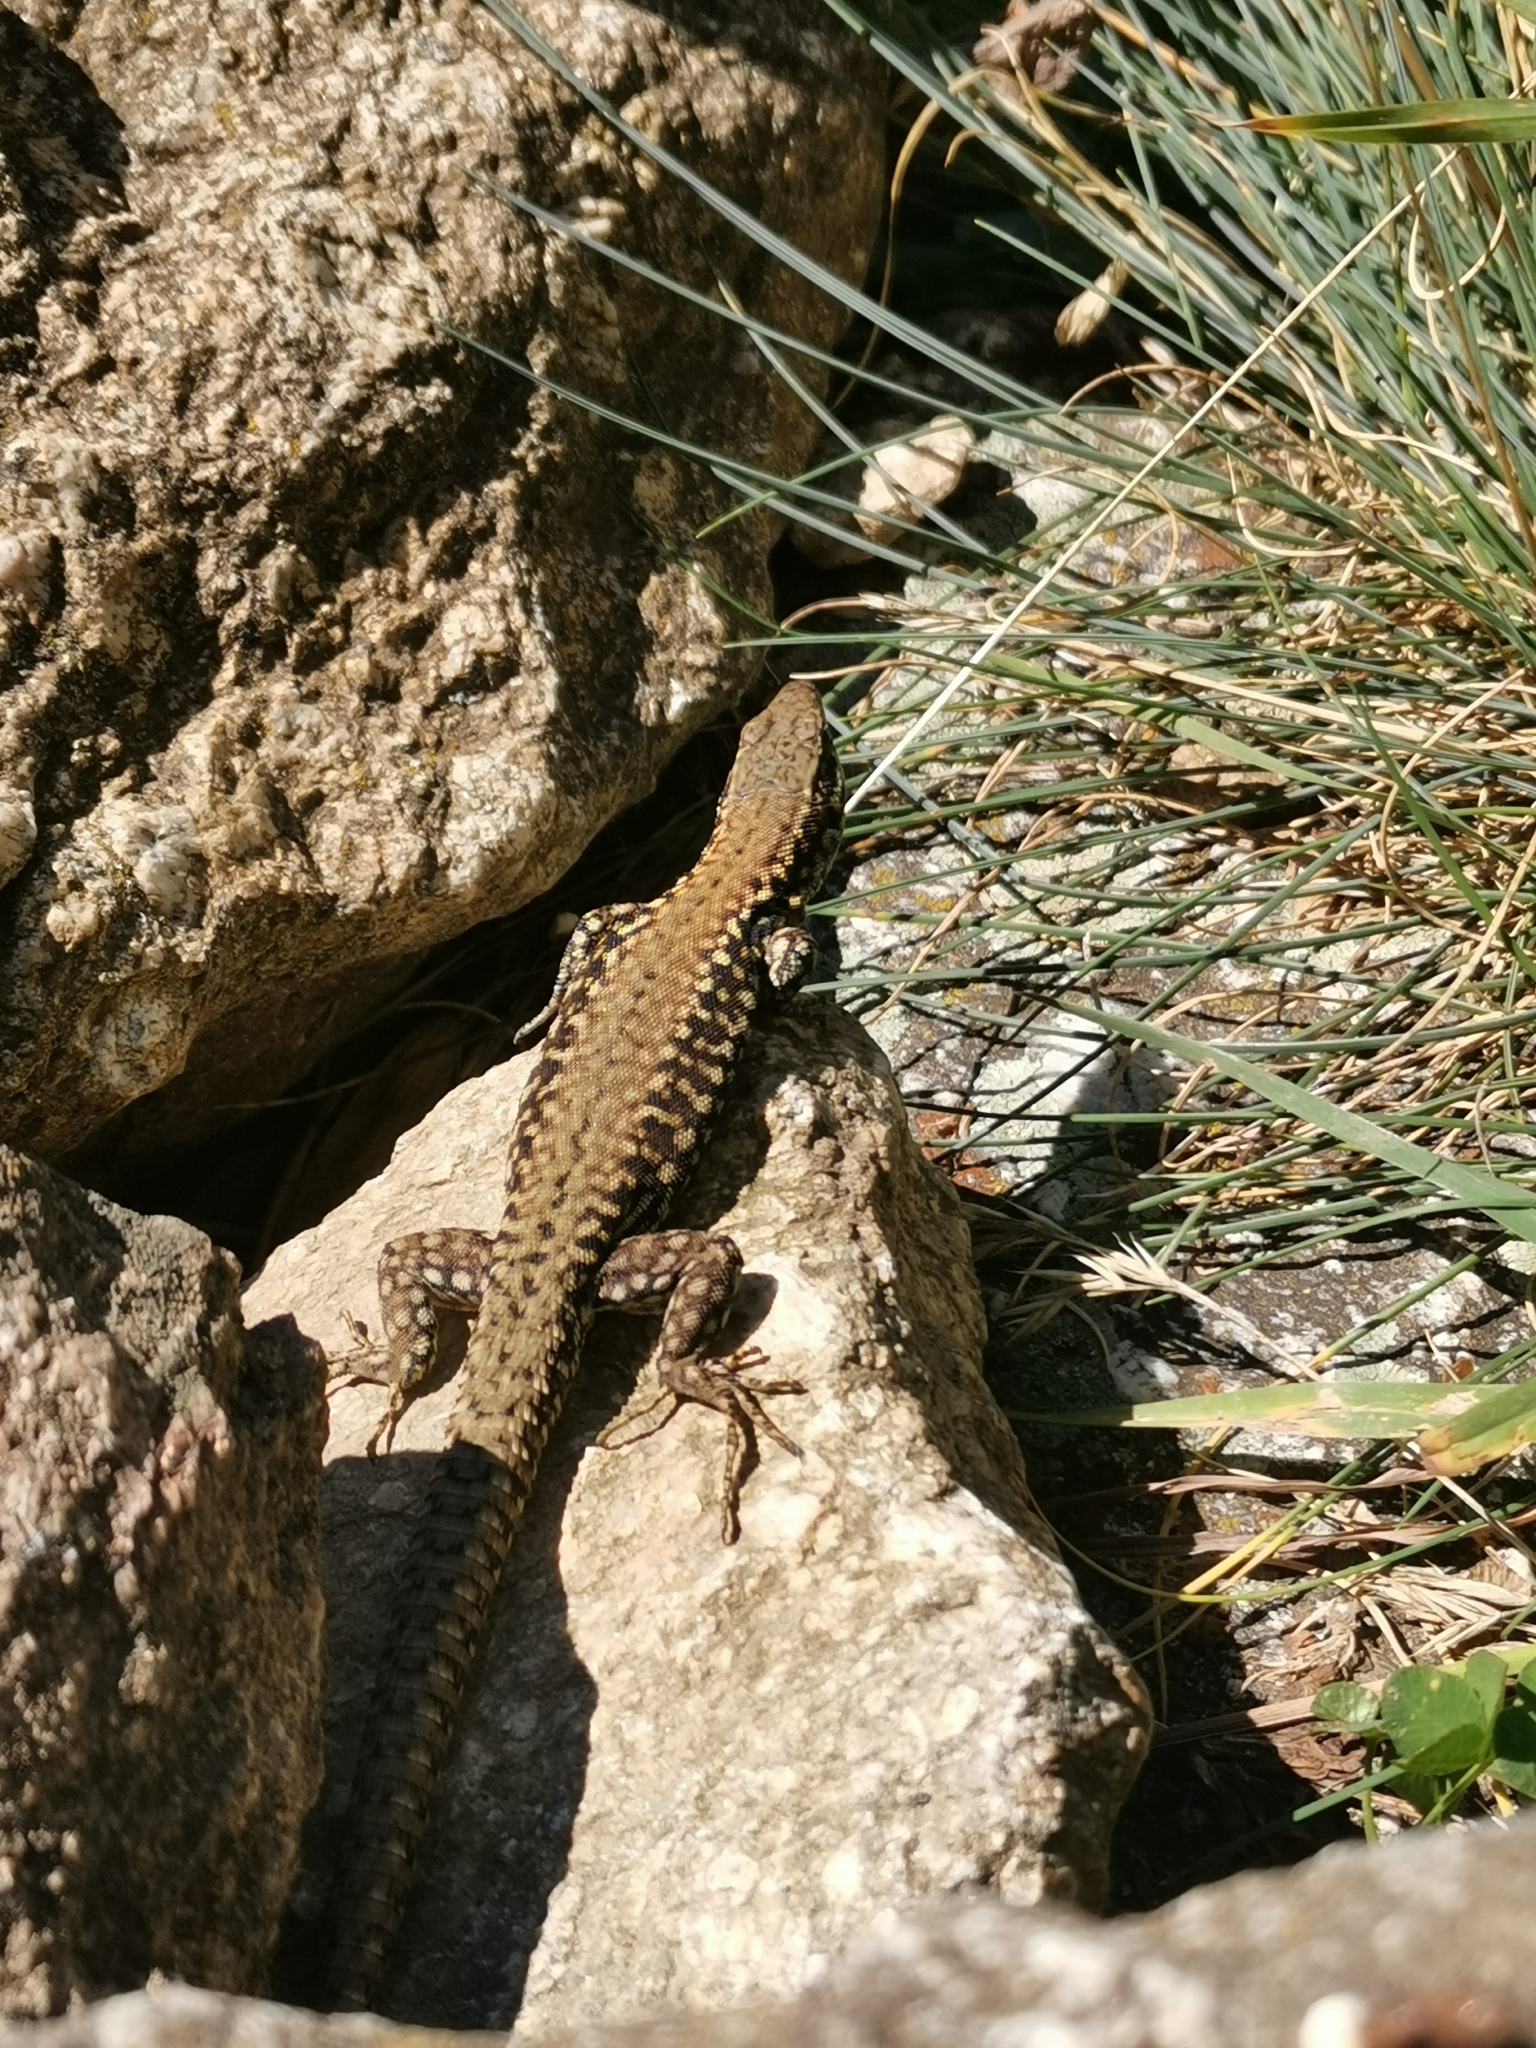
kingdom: Animalia
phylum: Chordata
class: Squamata
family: Lacertidae
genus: Podarcis
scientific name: Podarcis muralis
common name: Common wall lizard
